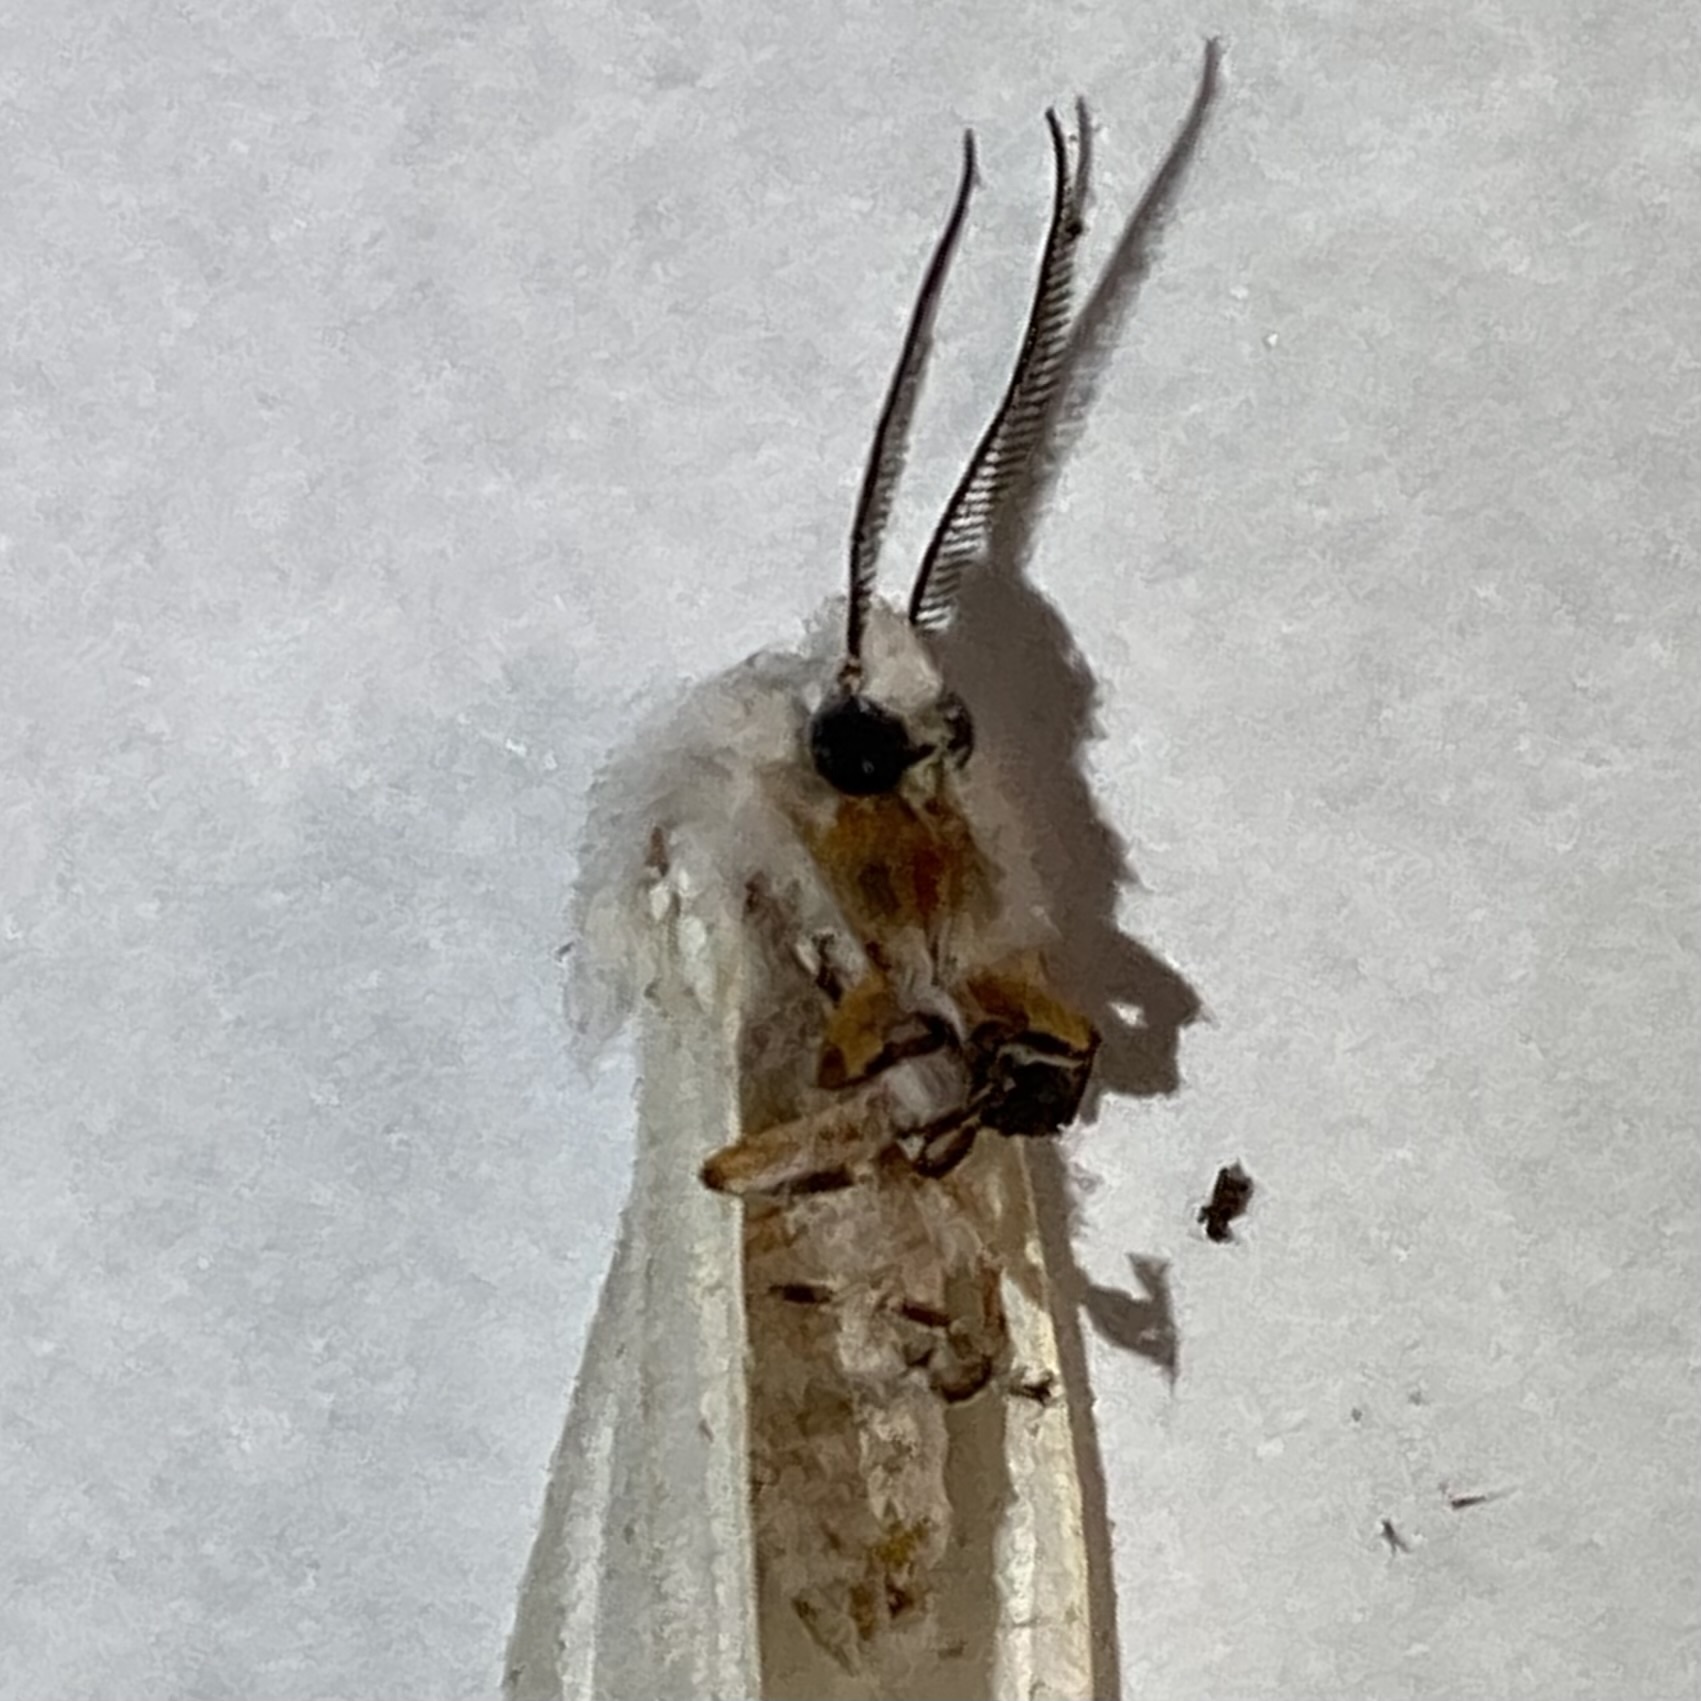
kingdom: Animalia
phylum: Arthropoda
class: Insecta
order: Lepidoptera
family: Erebidae
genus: Hyphantria
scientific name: Hyphantria cunea
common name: American white moth
